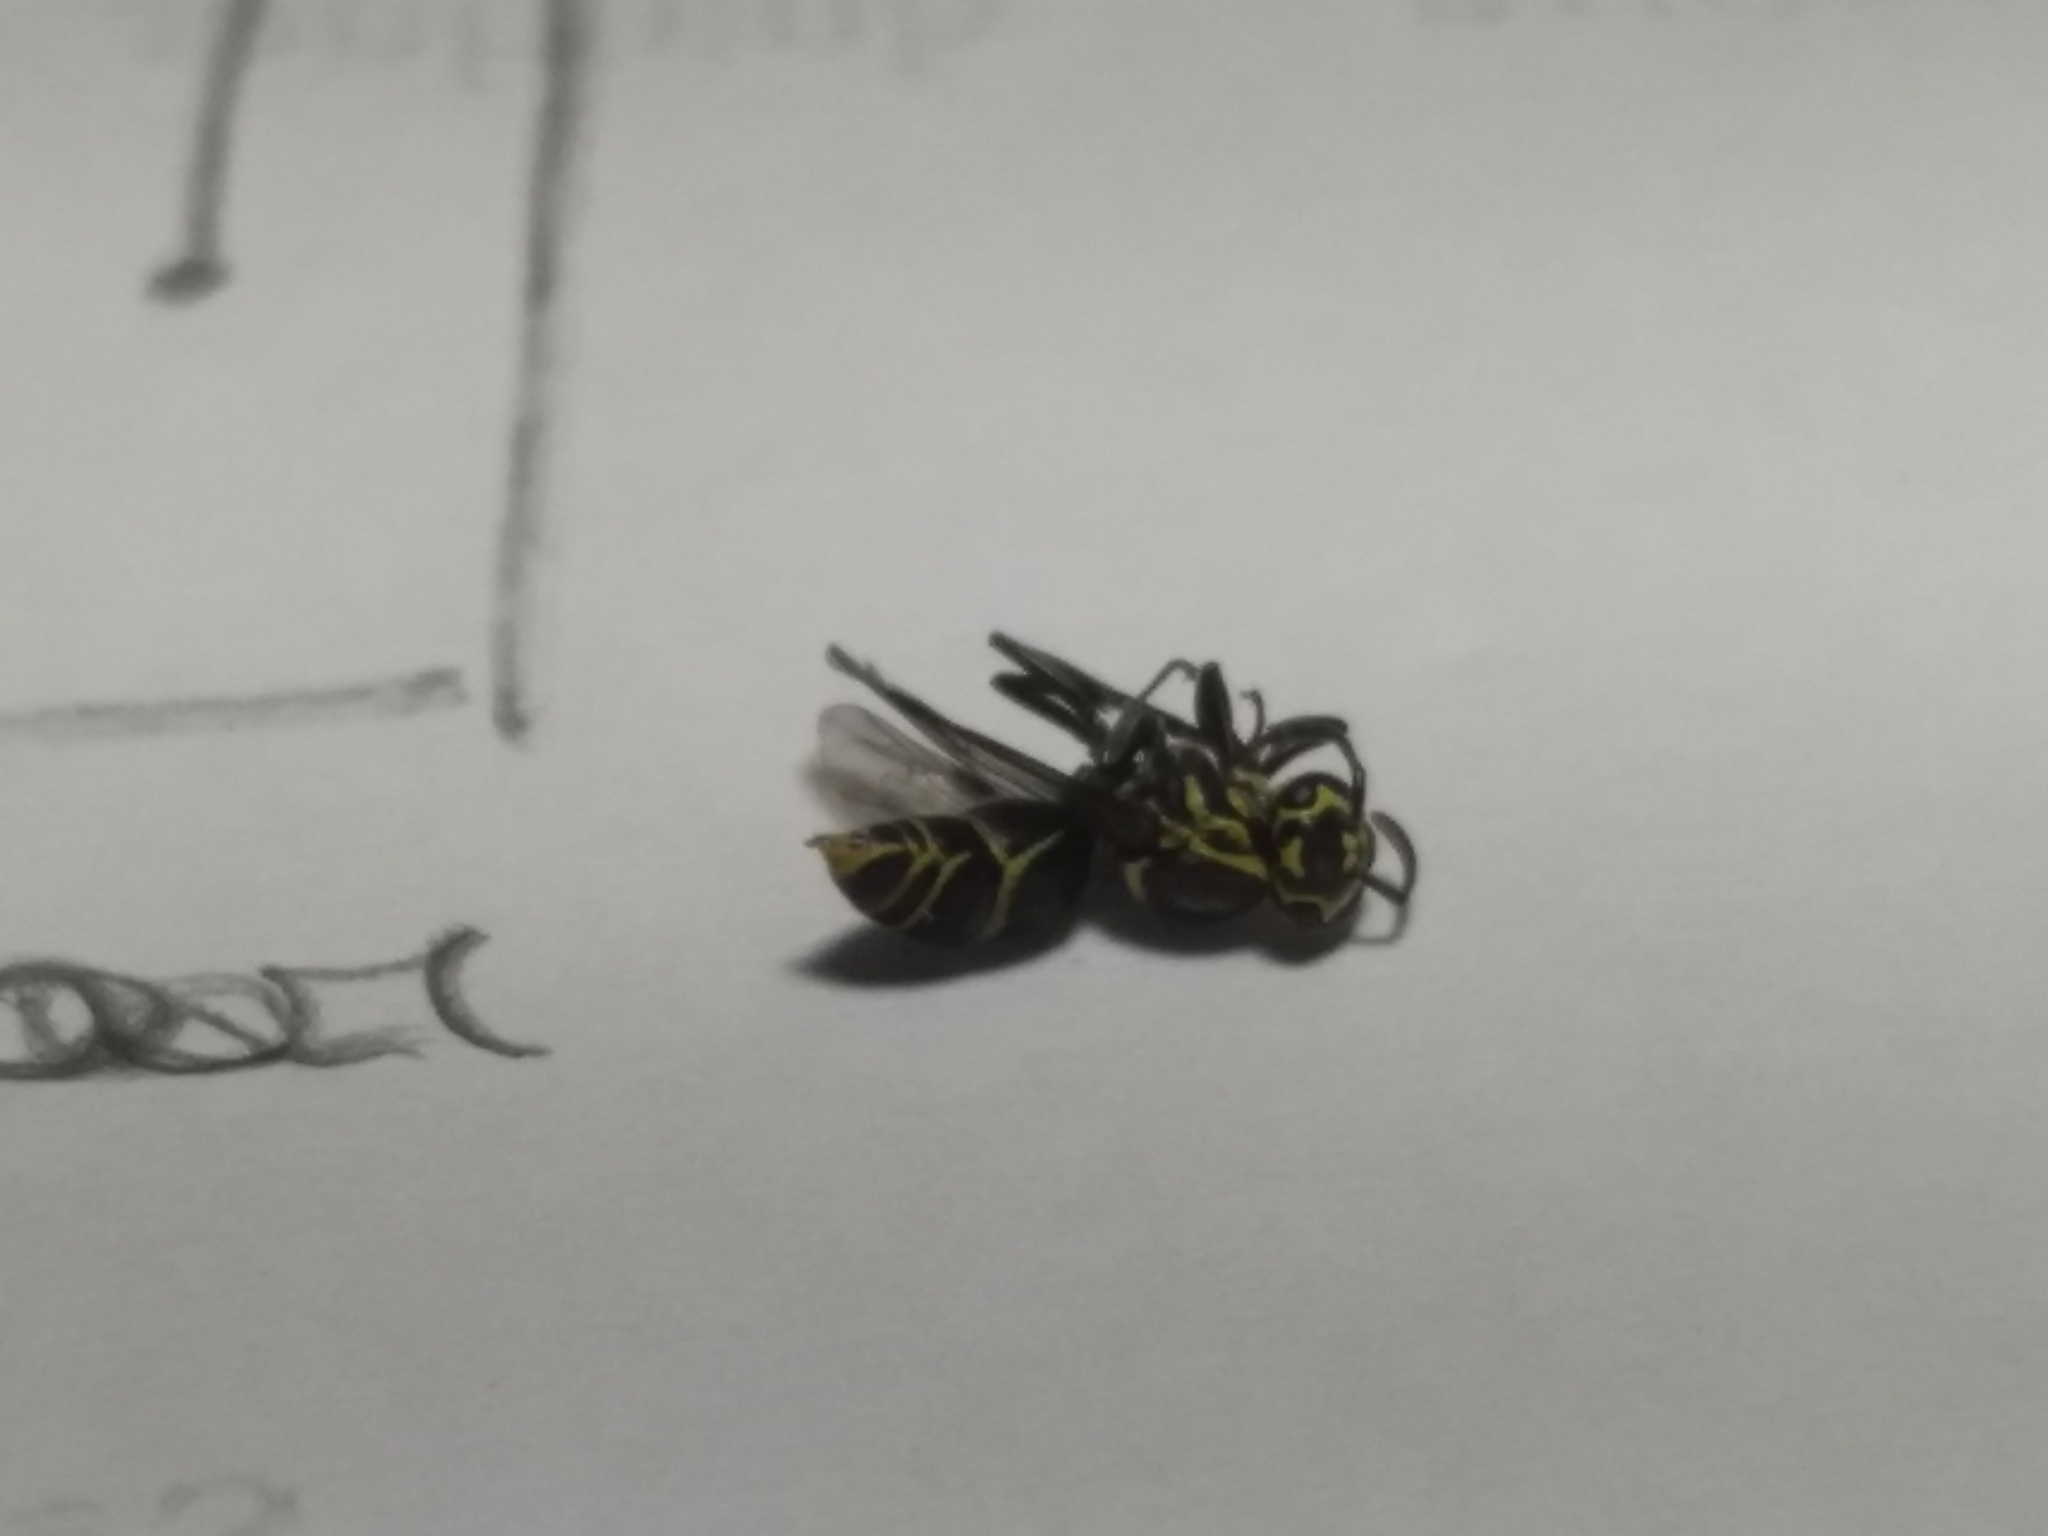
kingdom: Animalia
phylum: Arthropoda
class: Insecta
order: Hymenoptera
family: Vespidae
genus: Protonectarina
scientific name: Protonectarina sylveirae
